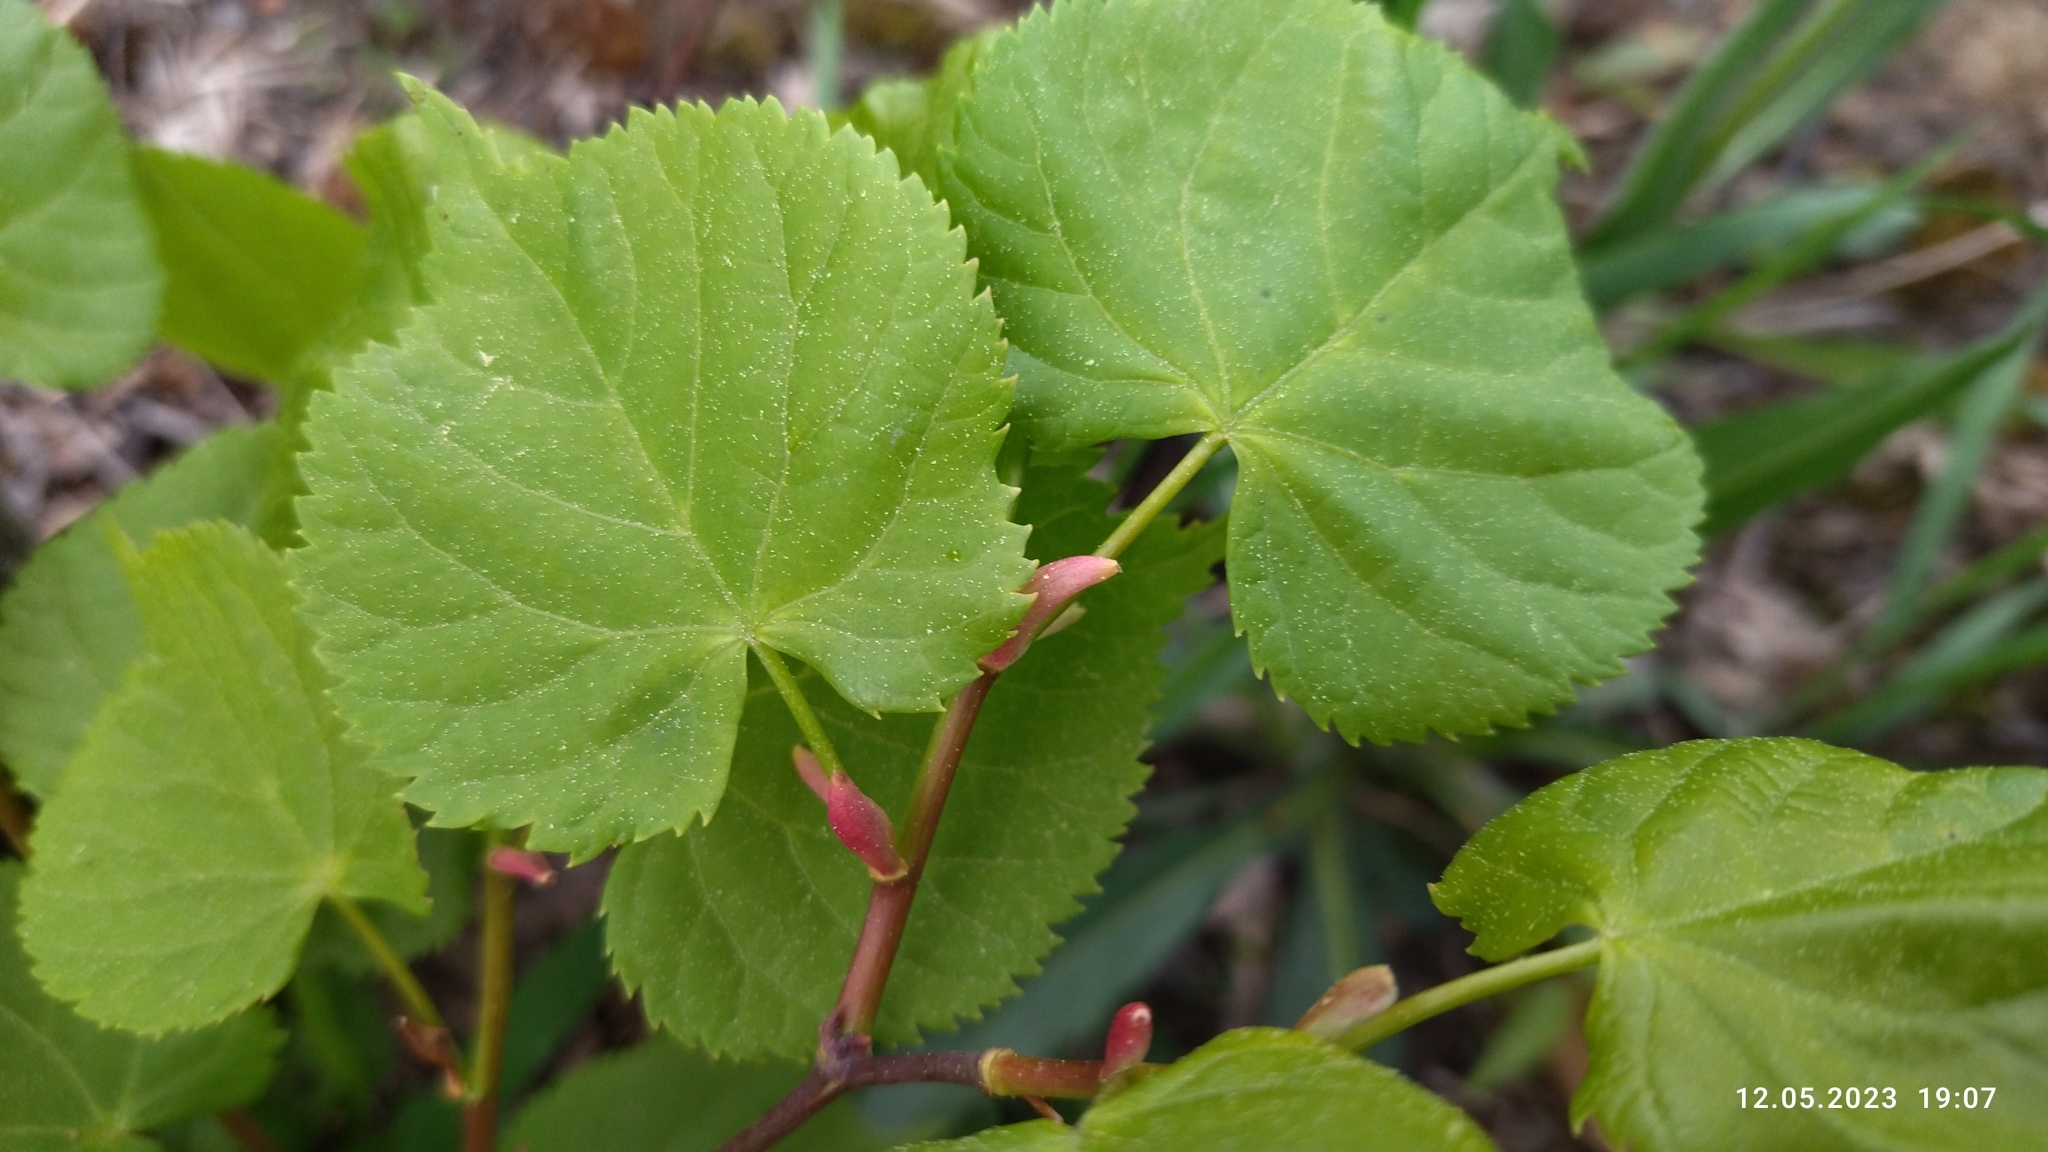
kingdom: Plantae
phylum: Tracheophyta
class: Magnoliopsida
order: Malvales
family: Malvaceae
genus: Tilia
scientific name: Tilia cordata
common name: Small-leaved lime
